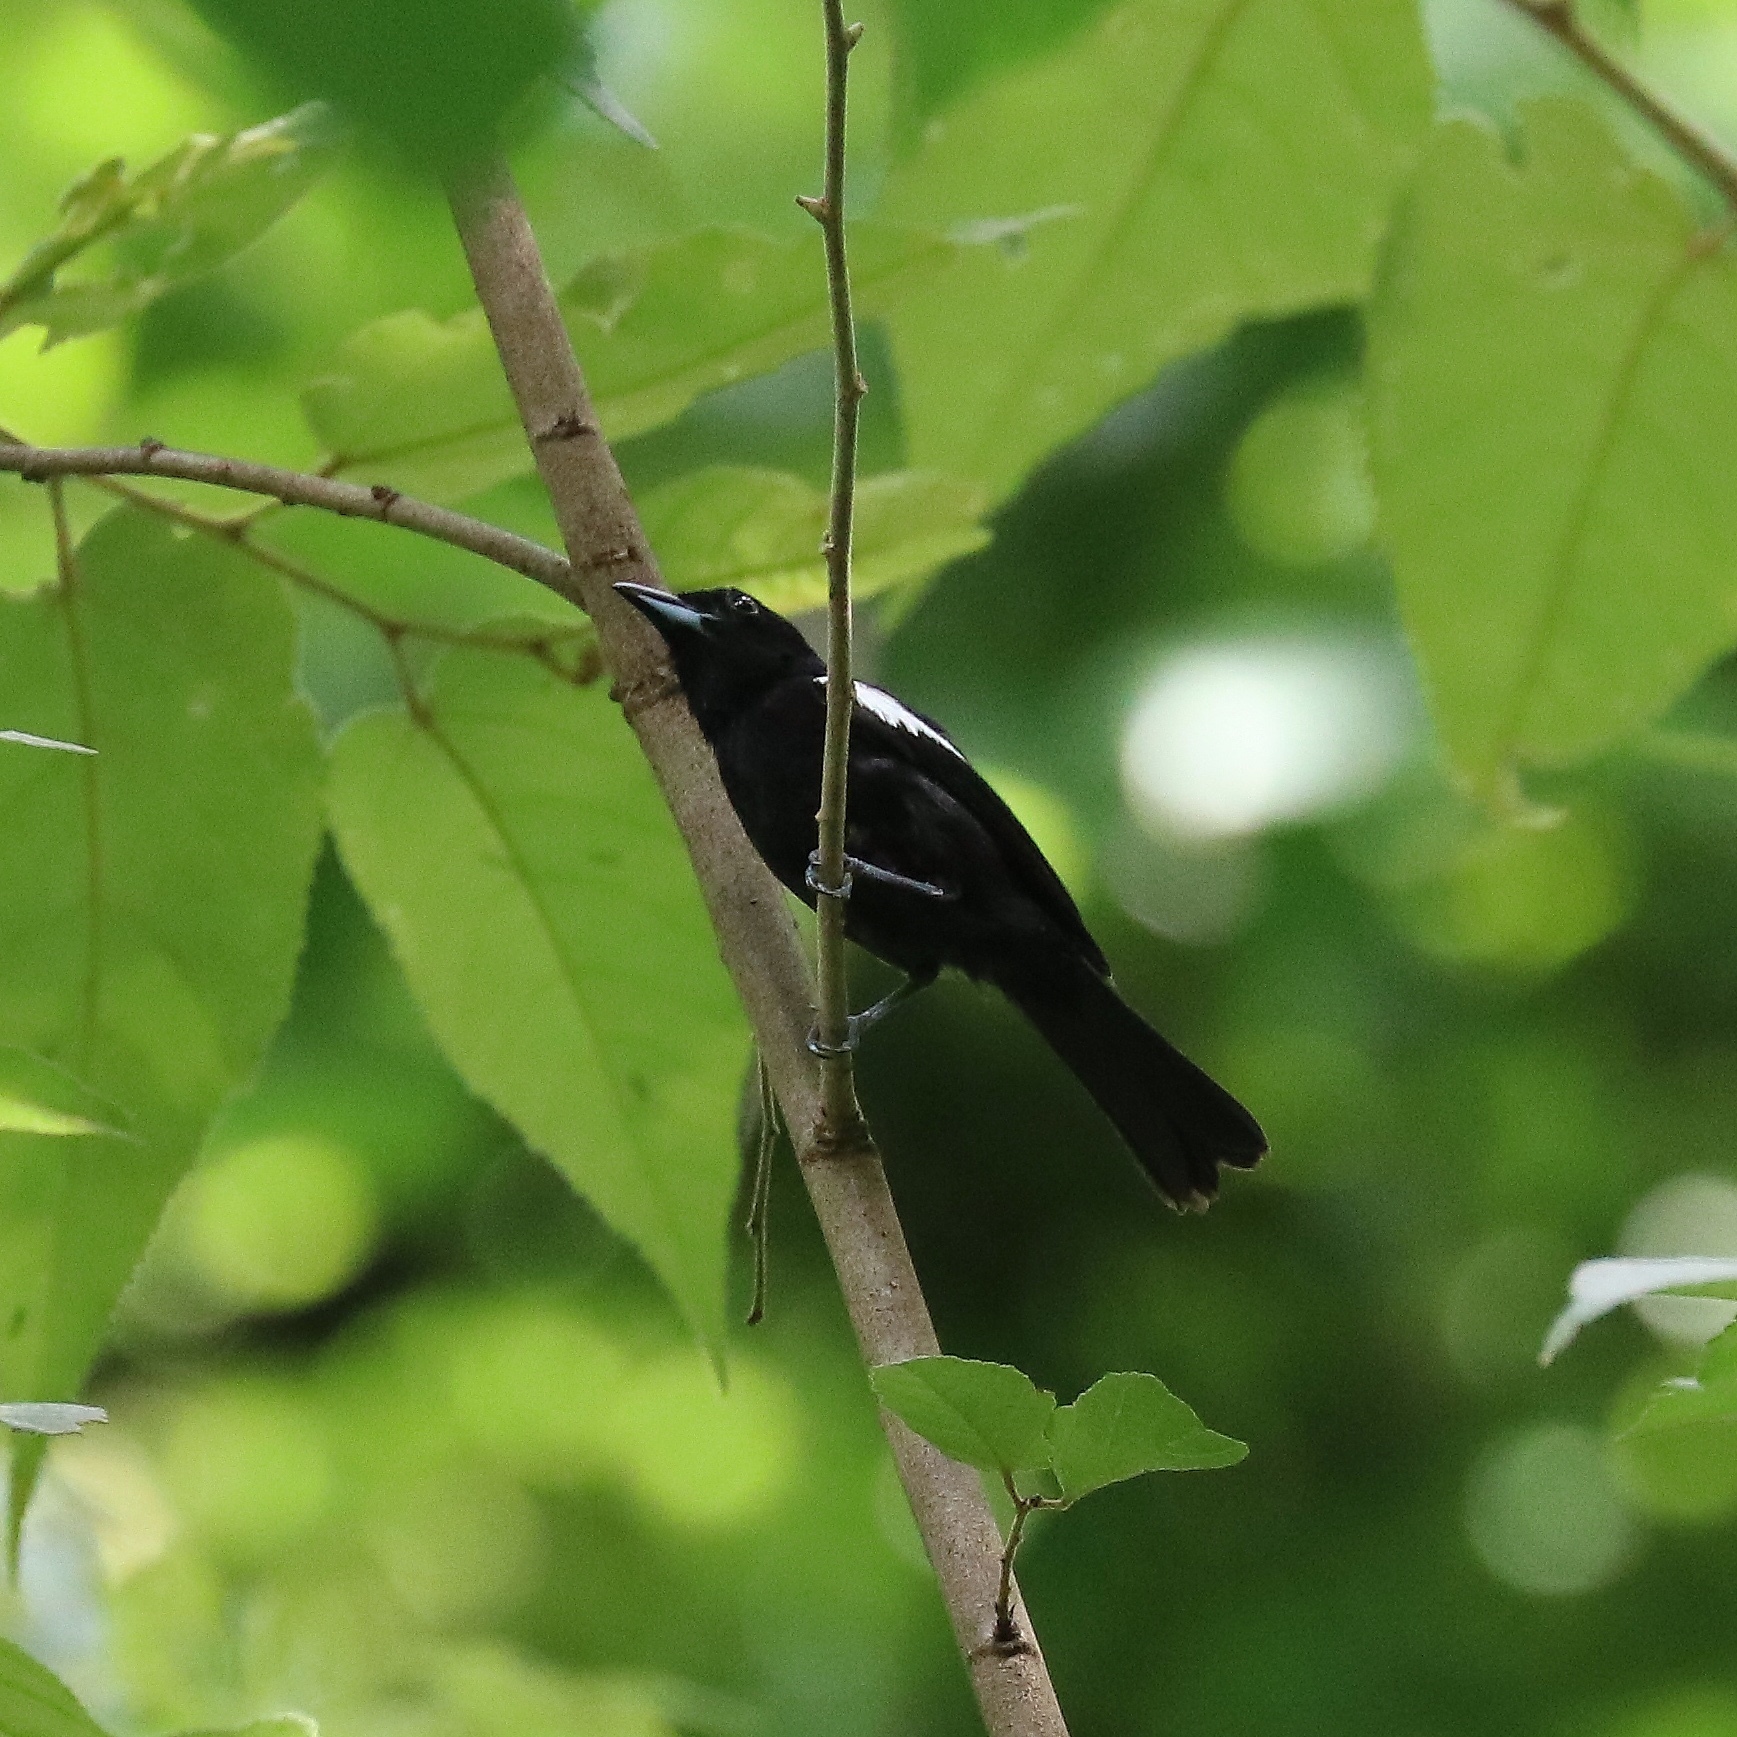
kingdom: Animalia
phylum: Chordata
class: Aves
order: Passeriformes
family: Thraupidae
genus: Loriotus
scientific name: Loriotus luctuosus
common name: White-shouldered tanager
